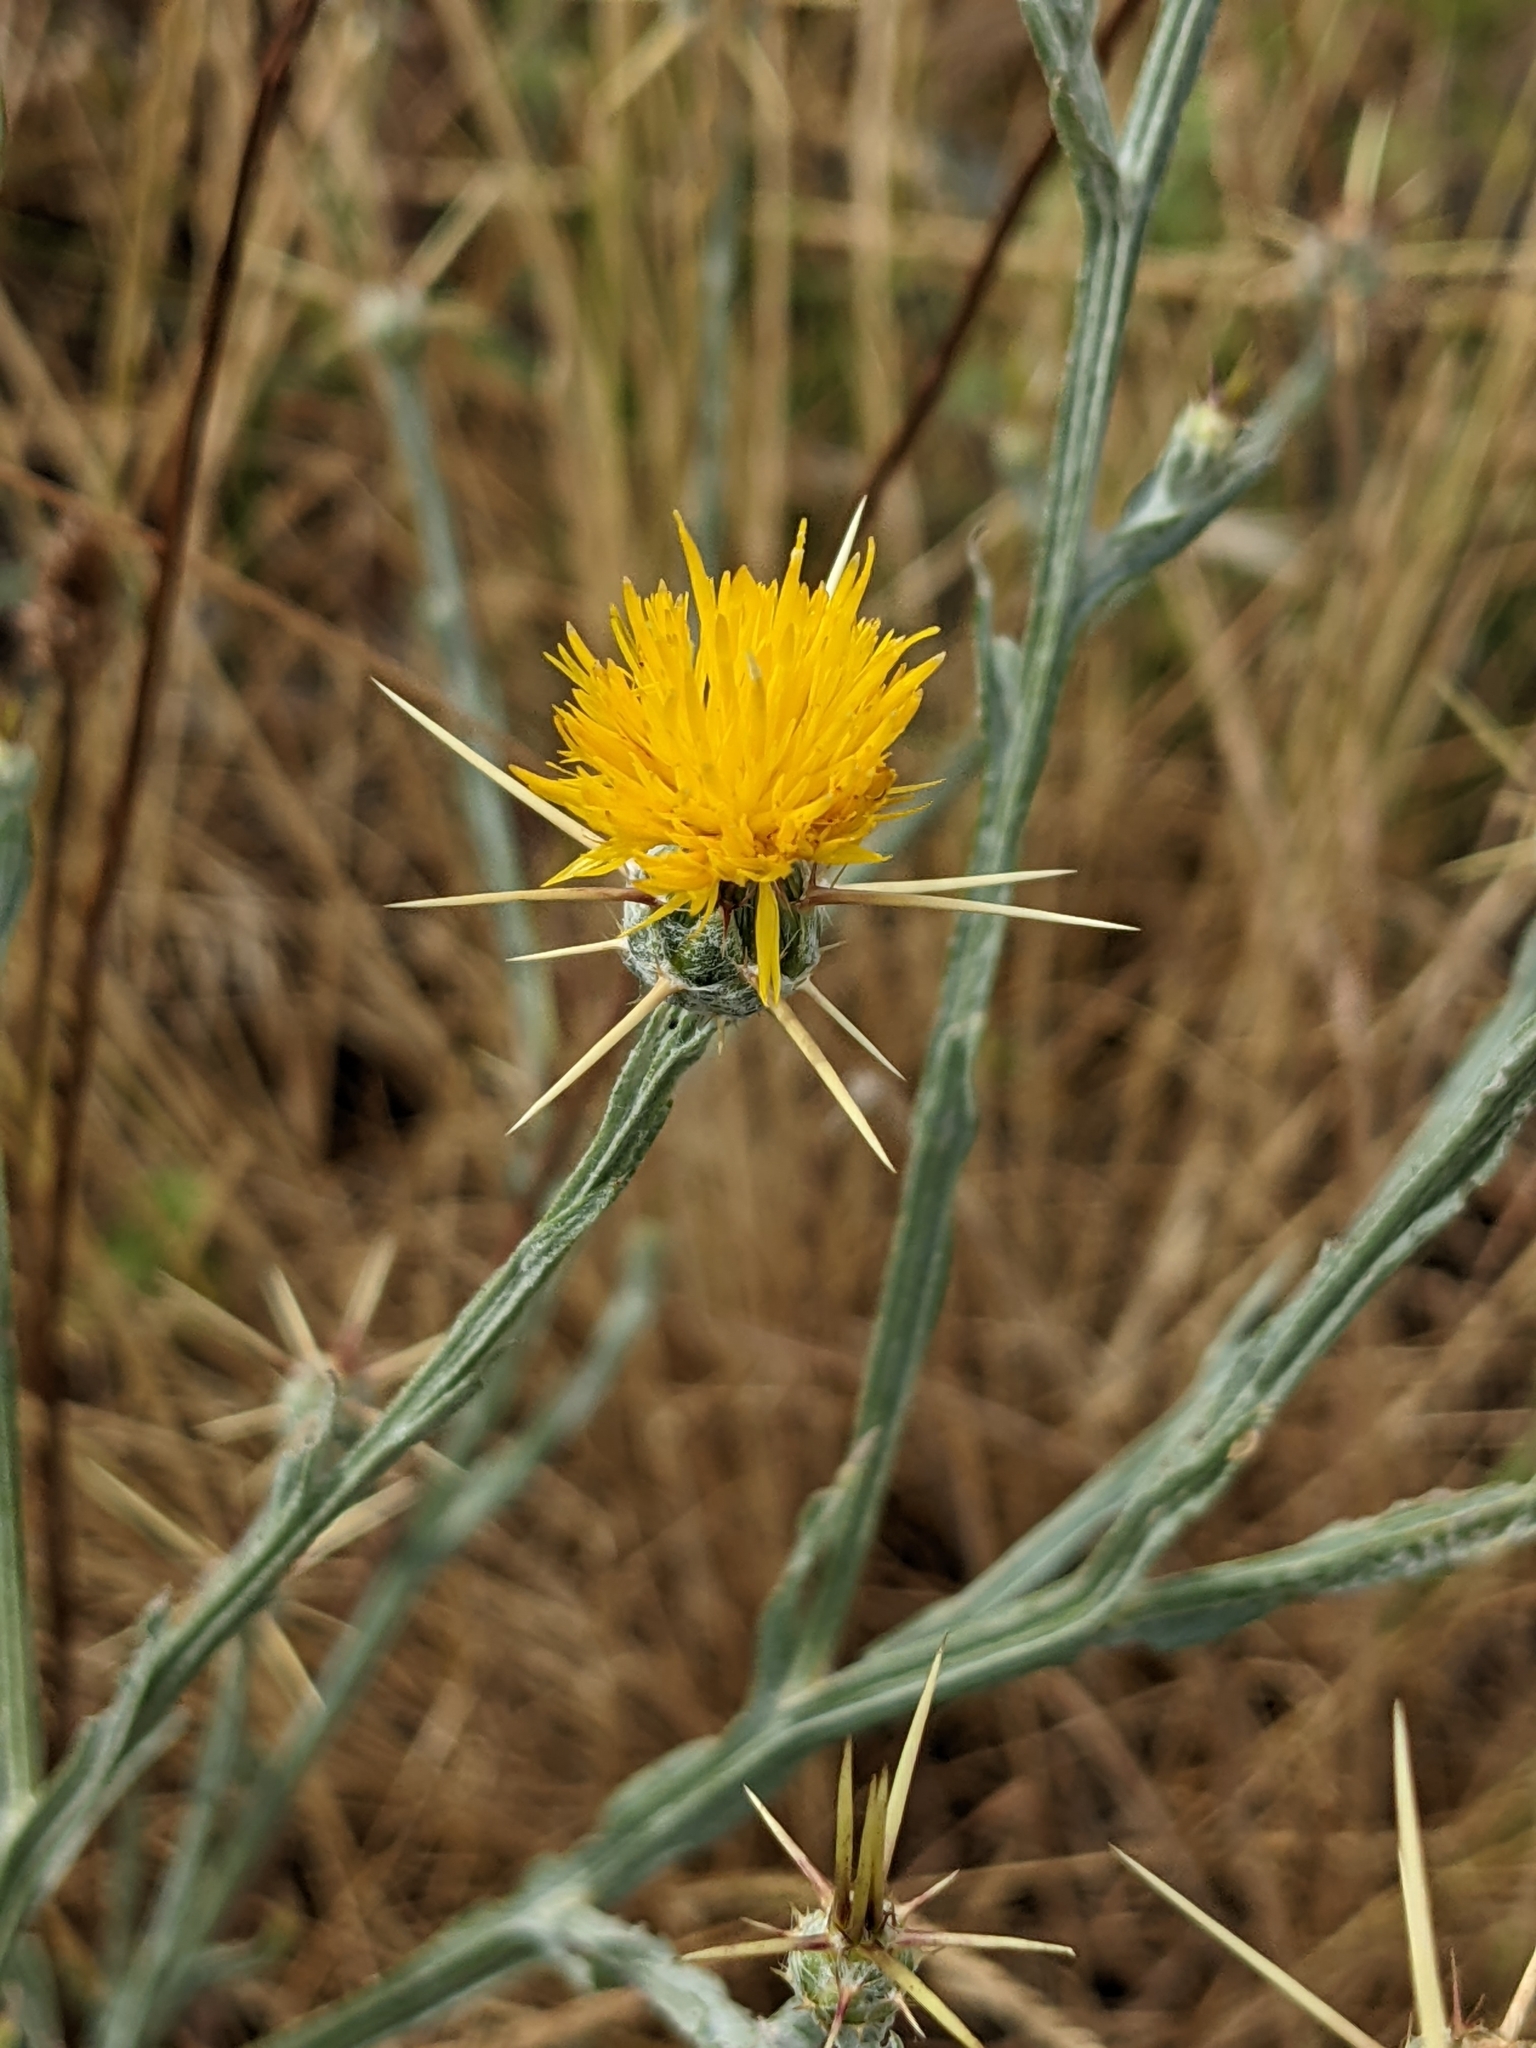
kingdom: Plantae
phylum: Tracheophyta
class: Magnoliopsida
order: Asterales
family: Asteraceae
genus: Centaurea
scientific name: Centaurea solstitialis
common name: Yellow star-thistle
